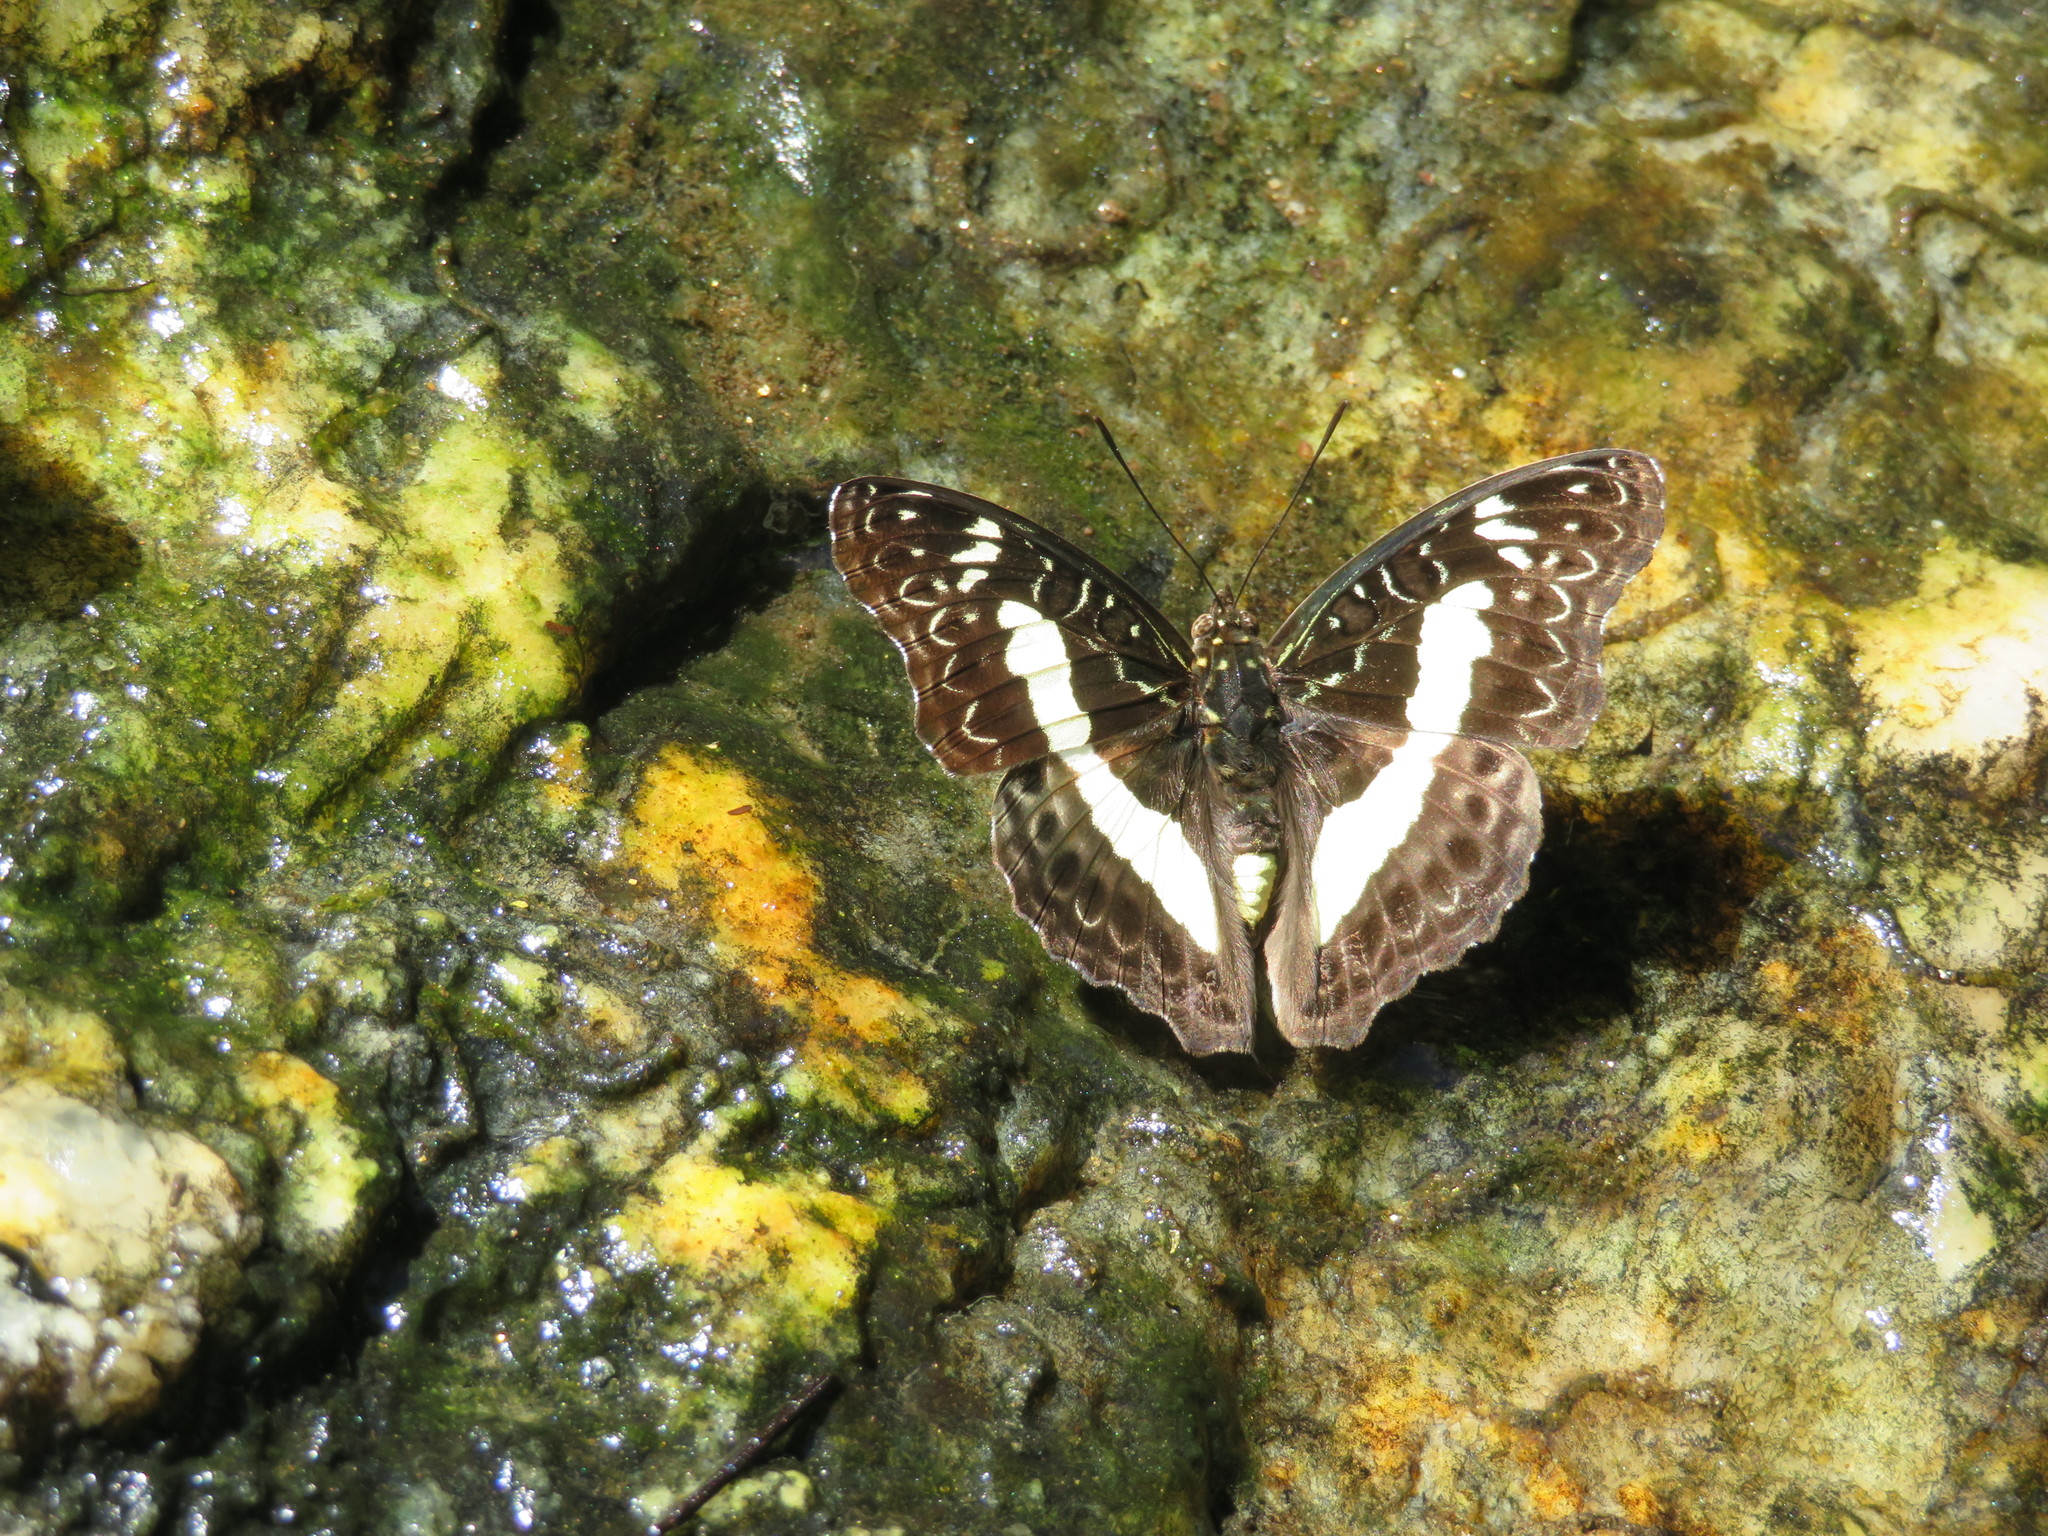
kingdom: Animalia
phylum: Arthropoda
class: Insecta
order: Lepidoptera
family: Nymphalidae
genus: Cymothoe
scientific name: Cymothoe Euptera kinugnana
